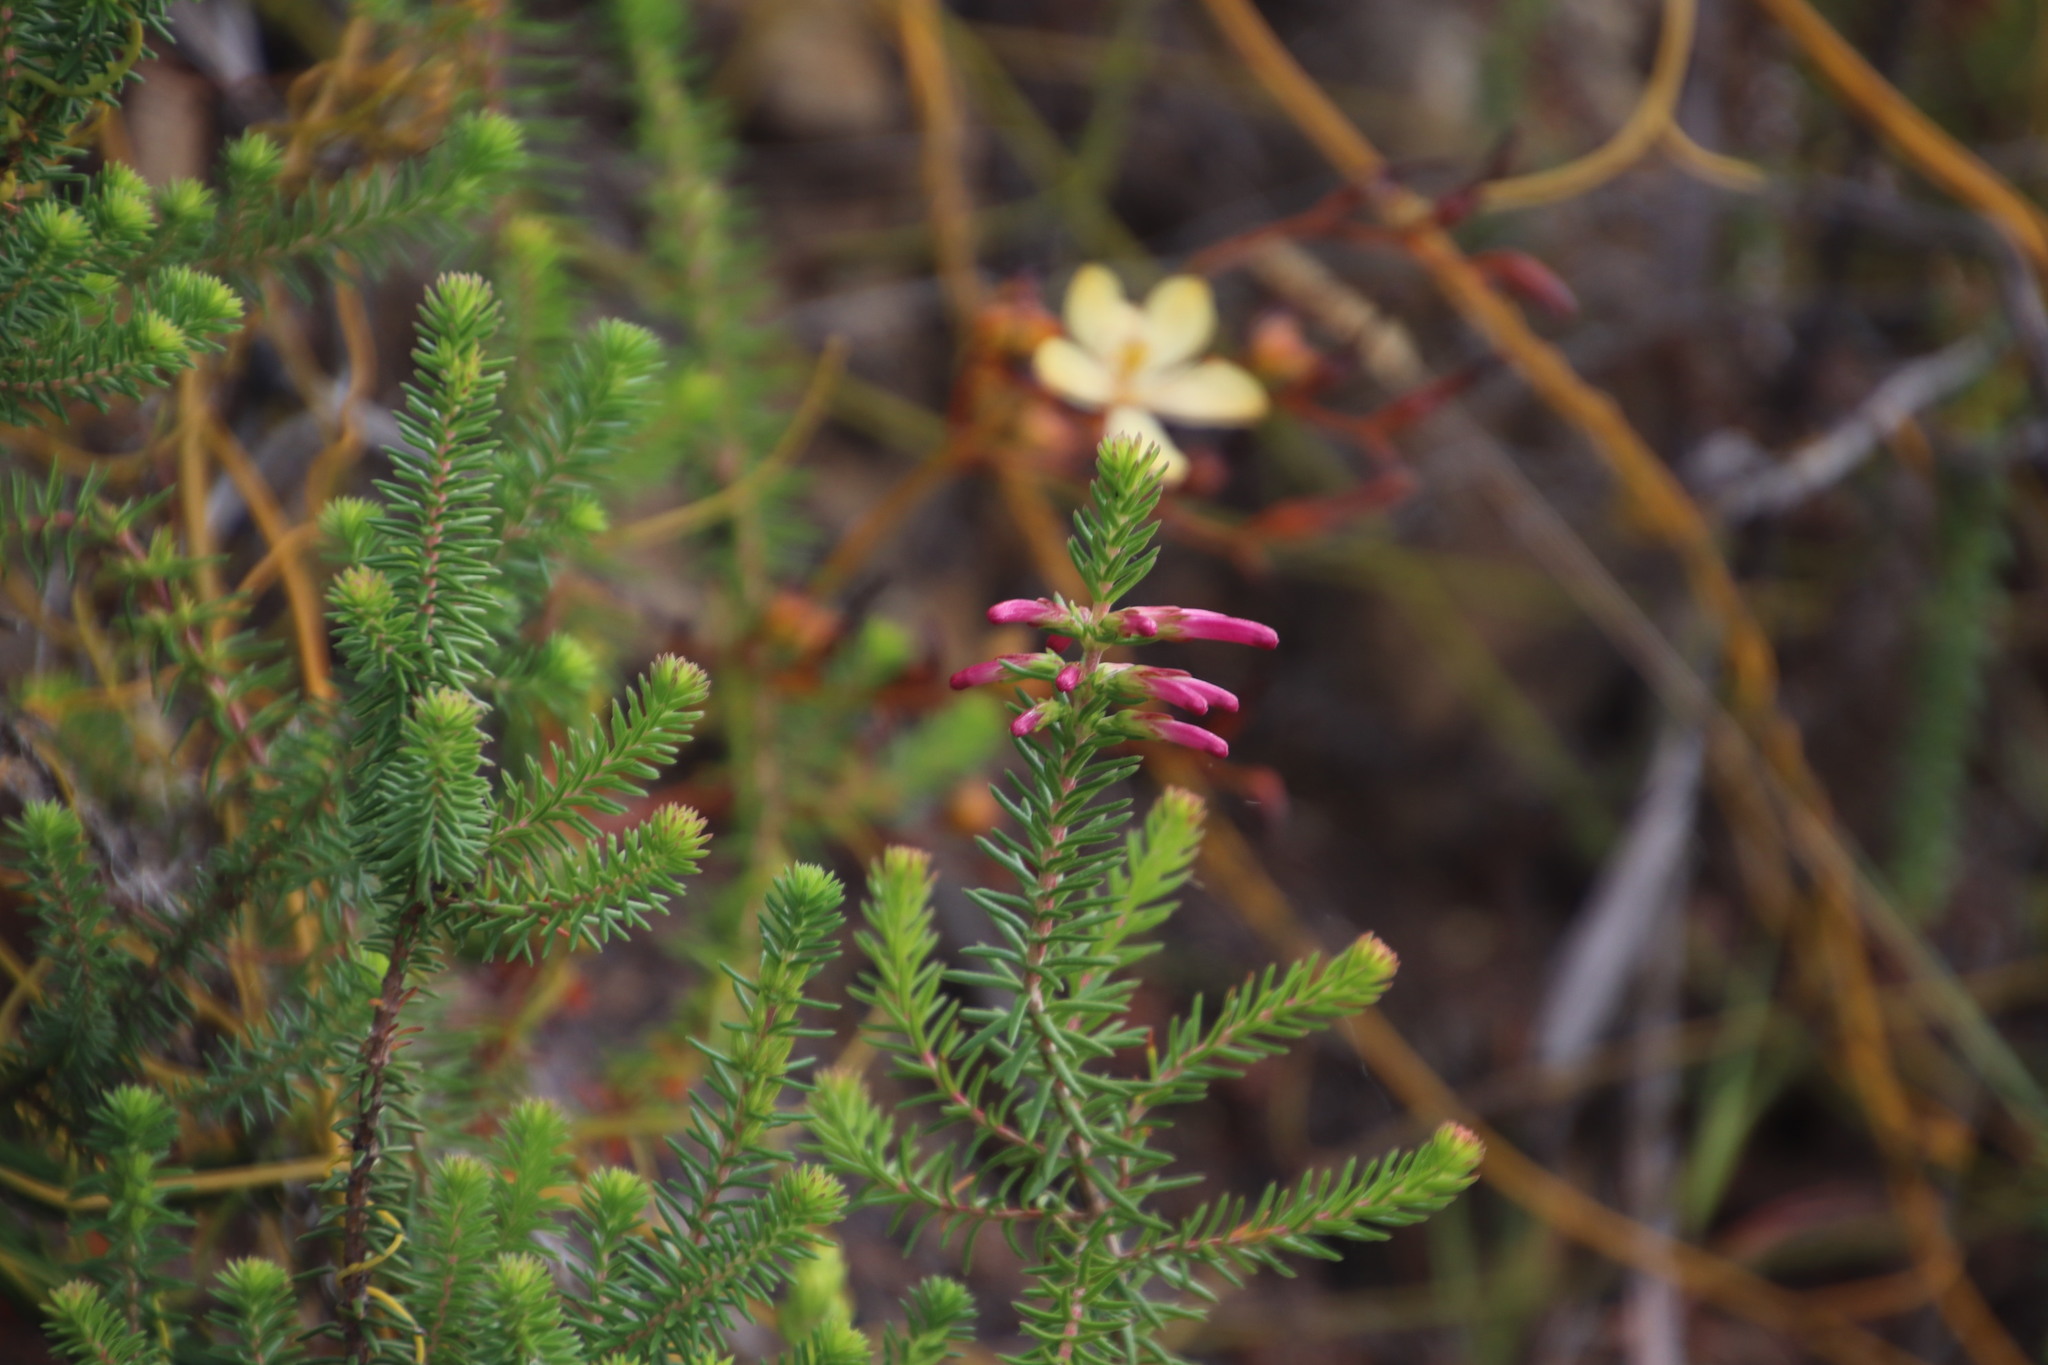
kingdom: Plantae
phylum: Tracheophyta
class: Magnoliopsida
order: Ericales
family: Ericaceae
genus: Erica
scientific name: Erica abietina
